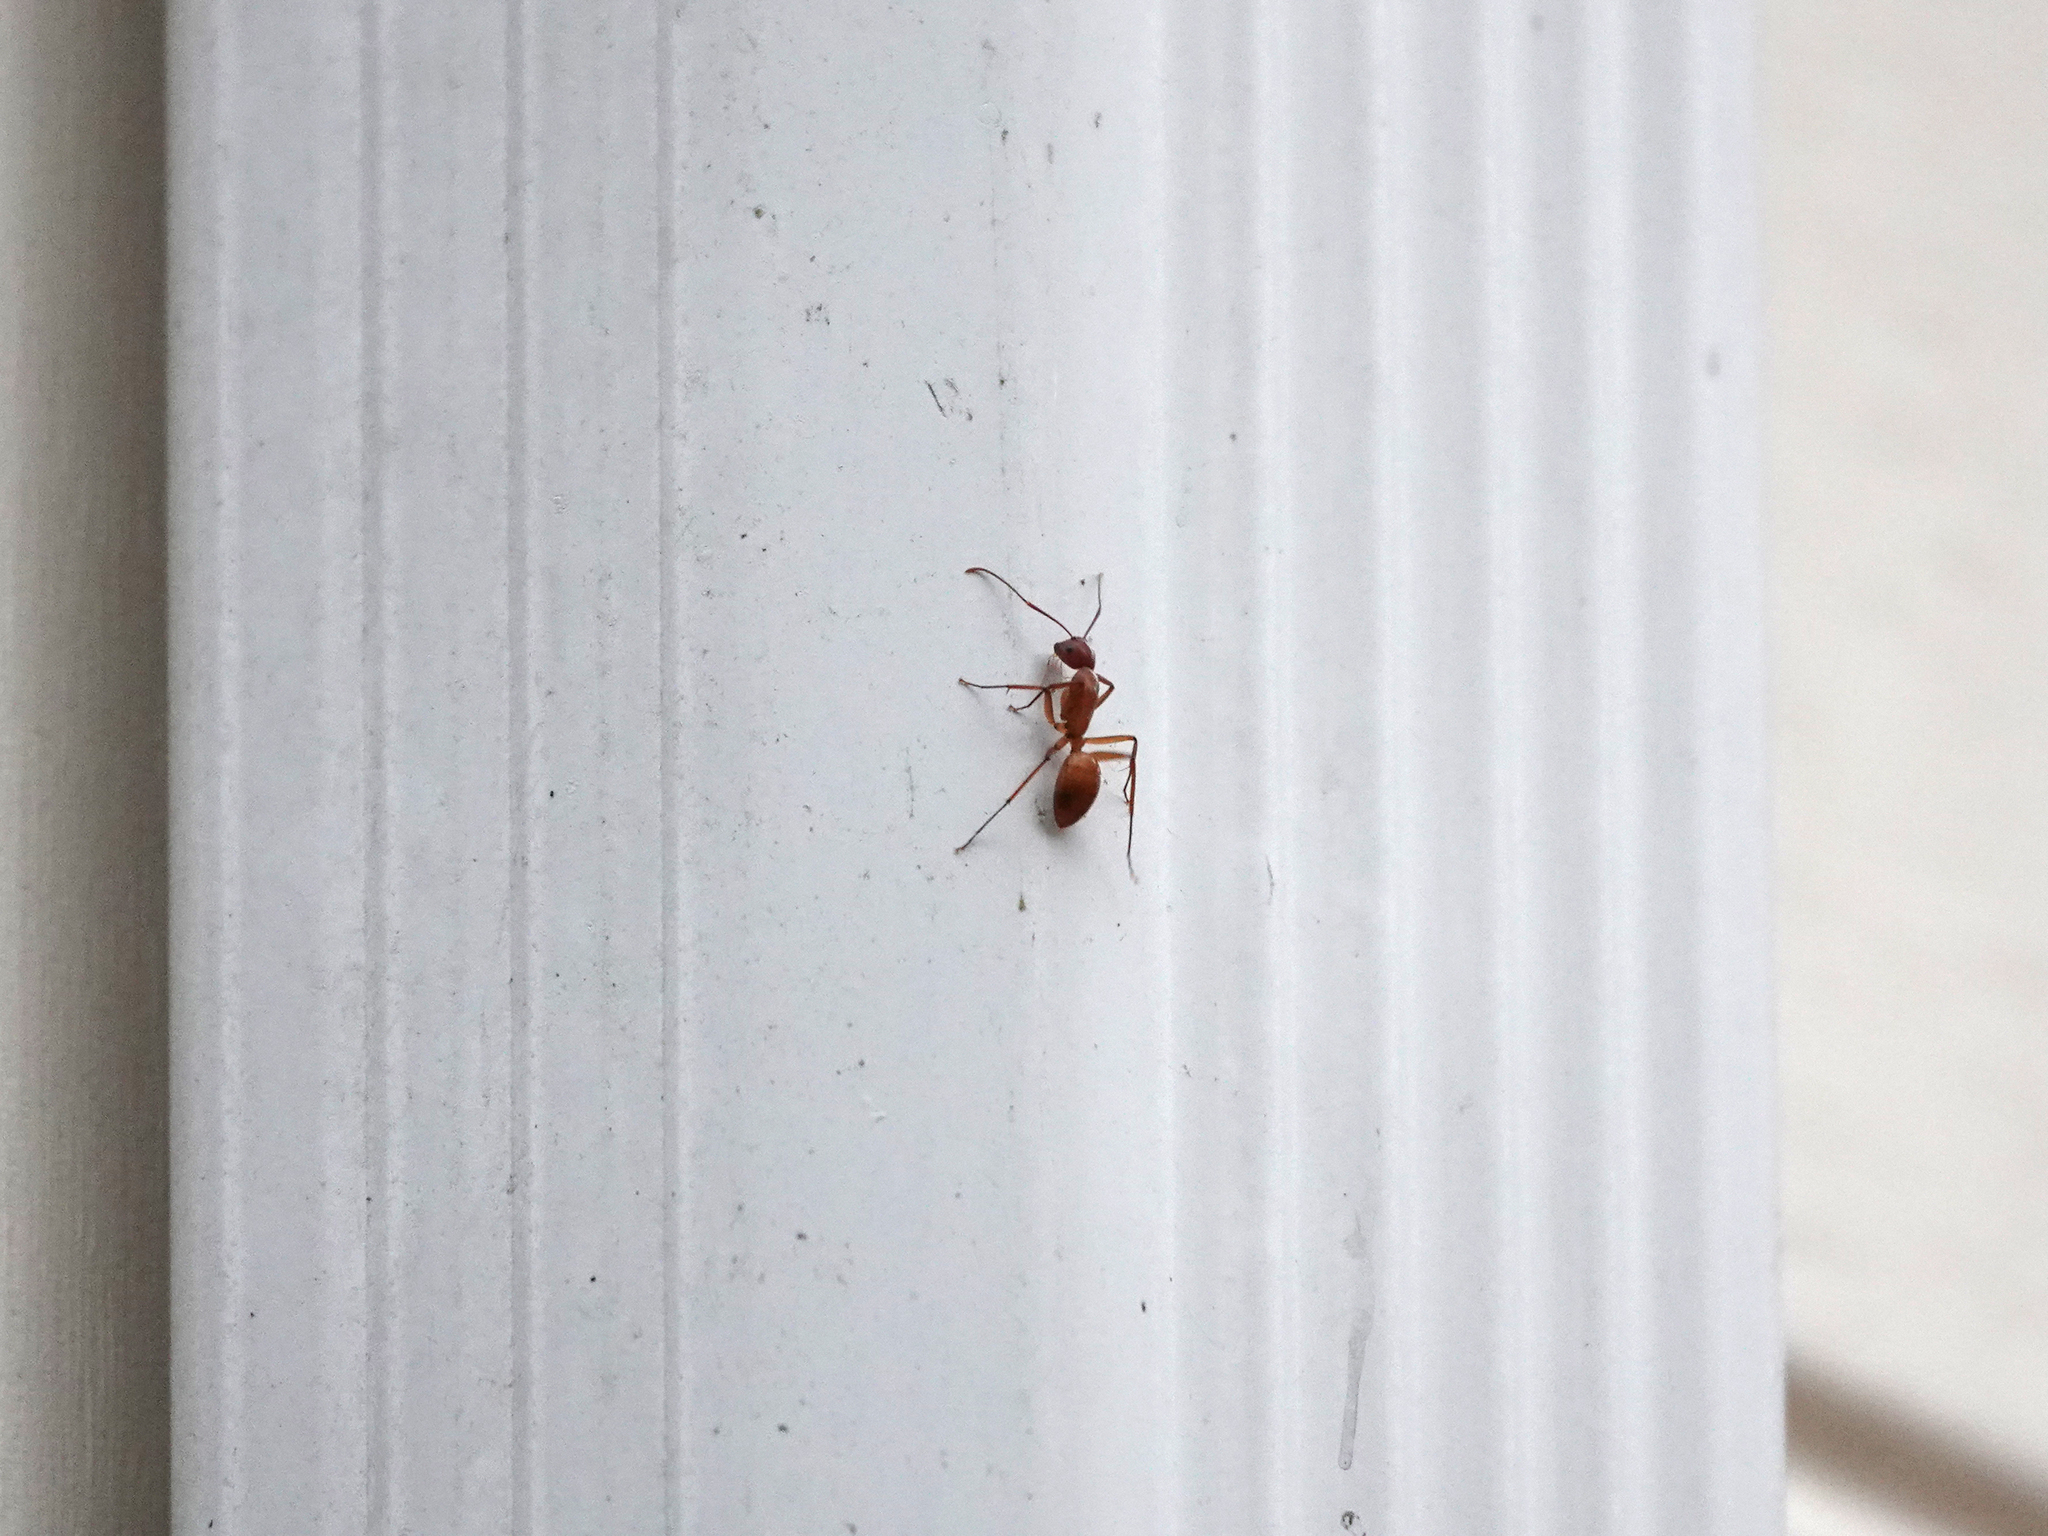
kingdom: Animalia
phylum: Arthropoda
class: Insecta
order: Hymenoptera
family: Formicidae
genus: Camponotus
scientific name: Camponotus castaneus
